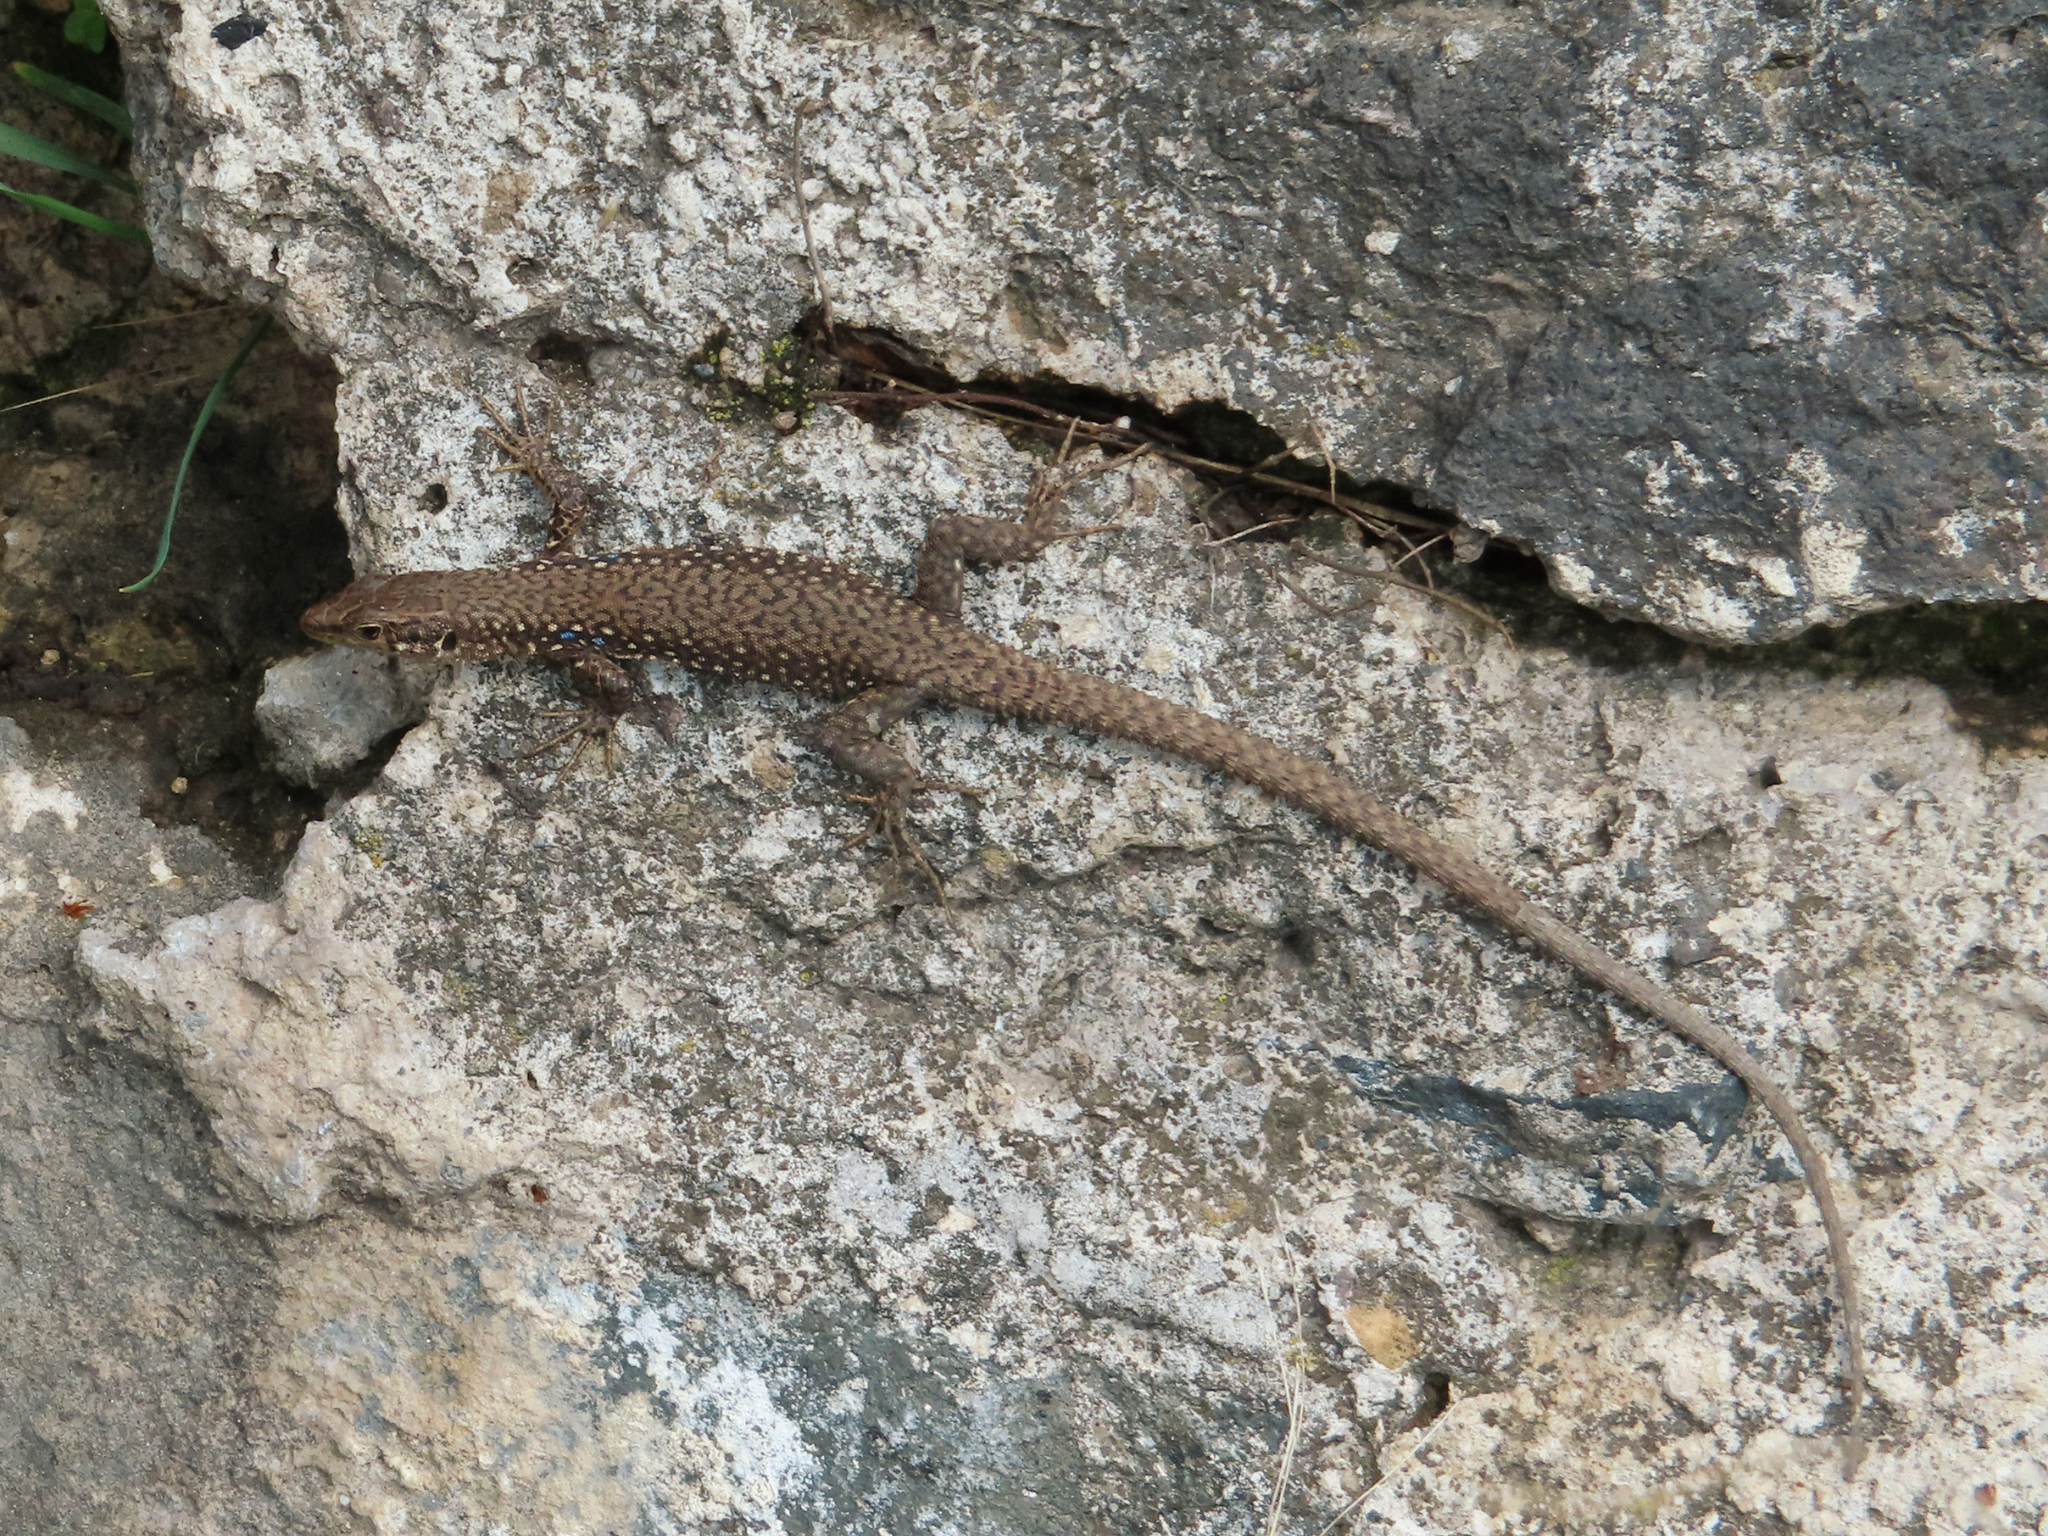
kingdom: Animalia
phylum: Chordata
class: Squamata
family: Lacertidae
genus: Darevskia
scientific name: Darevskia
